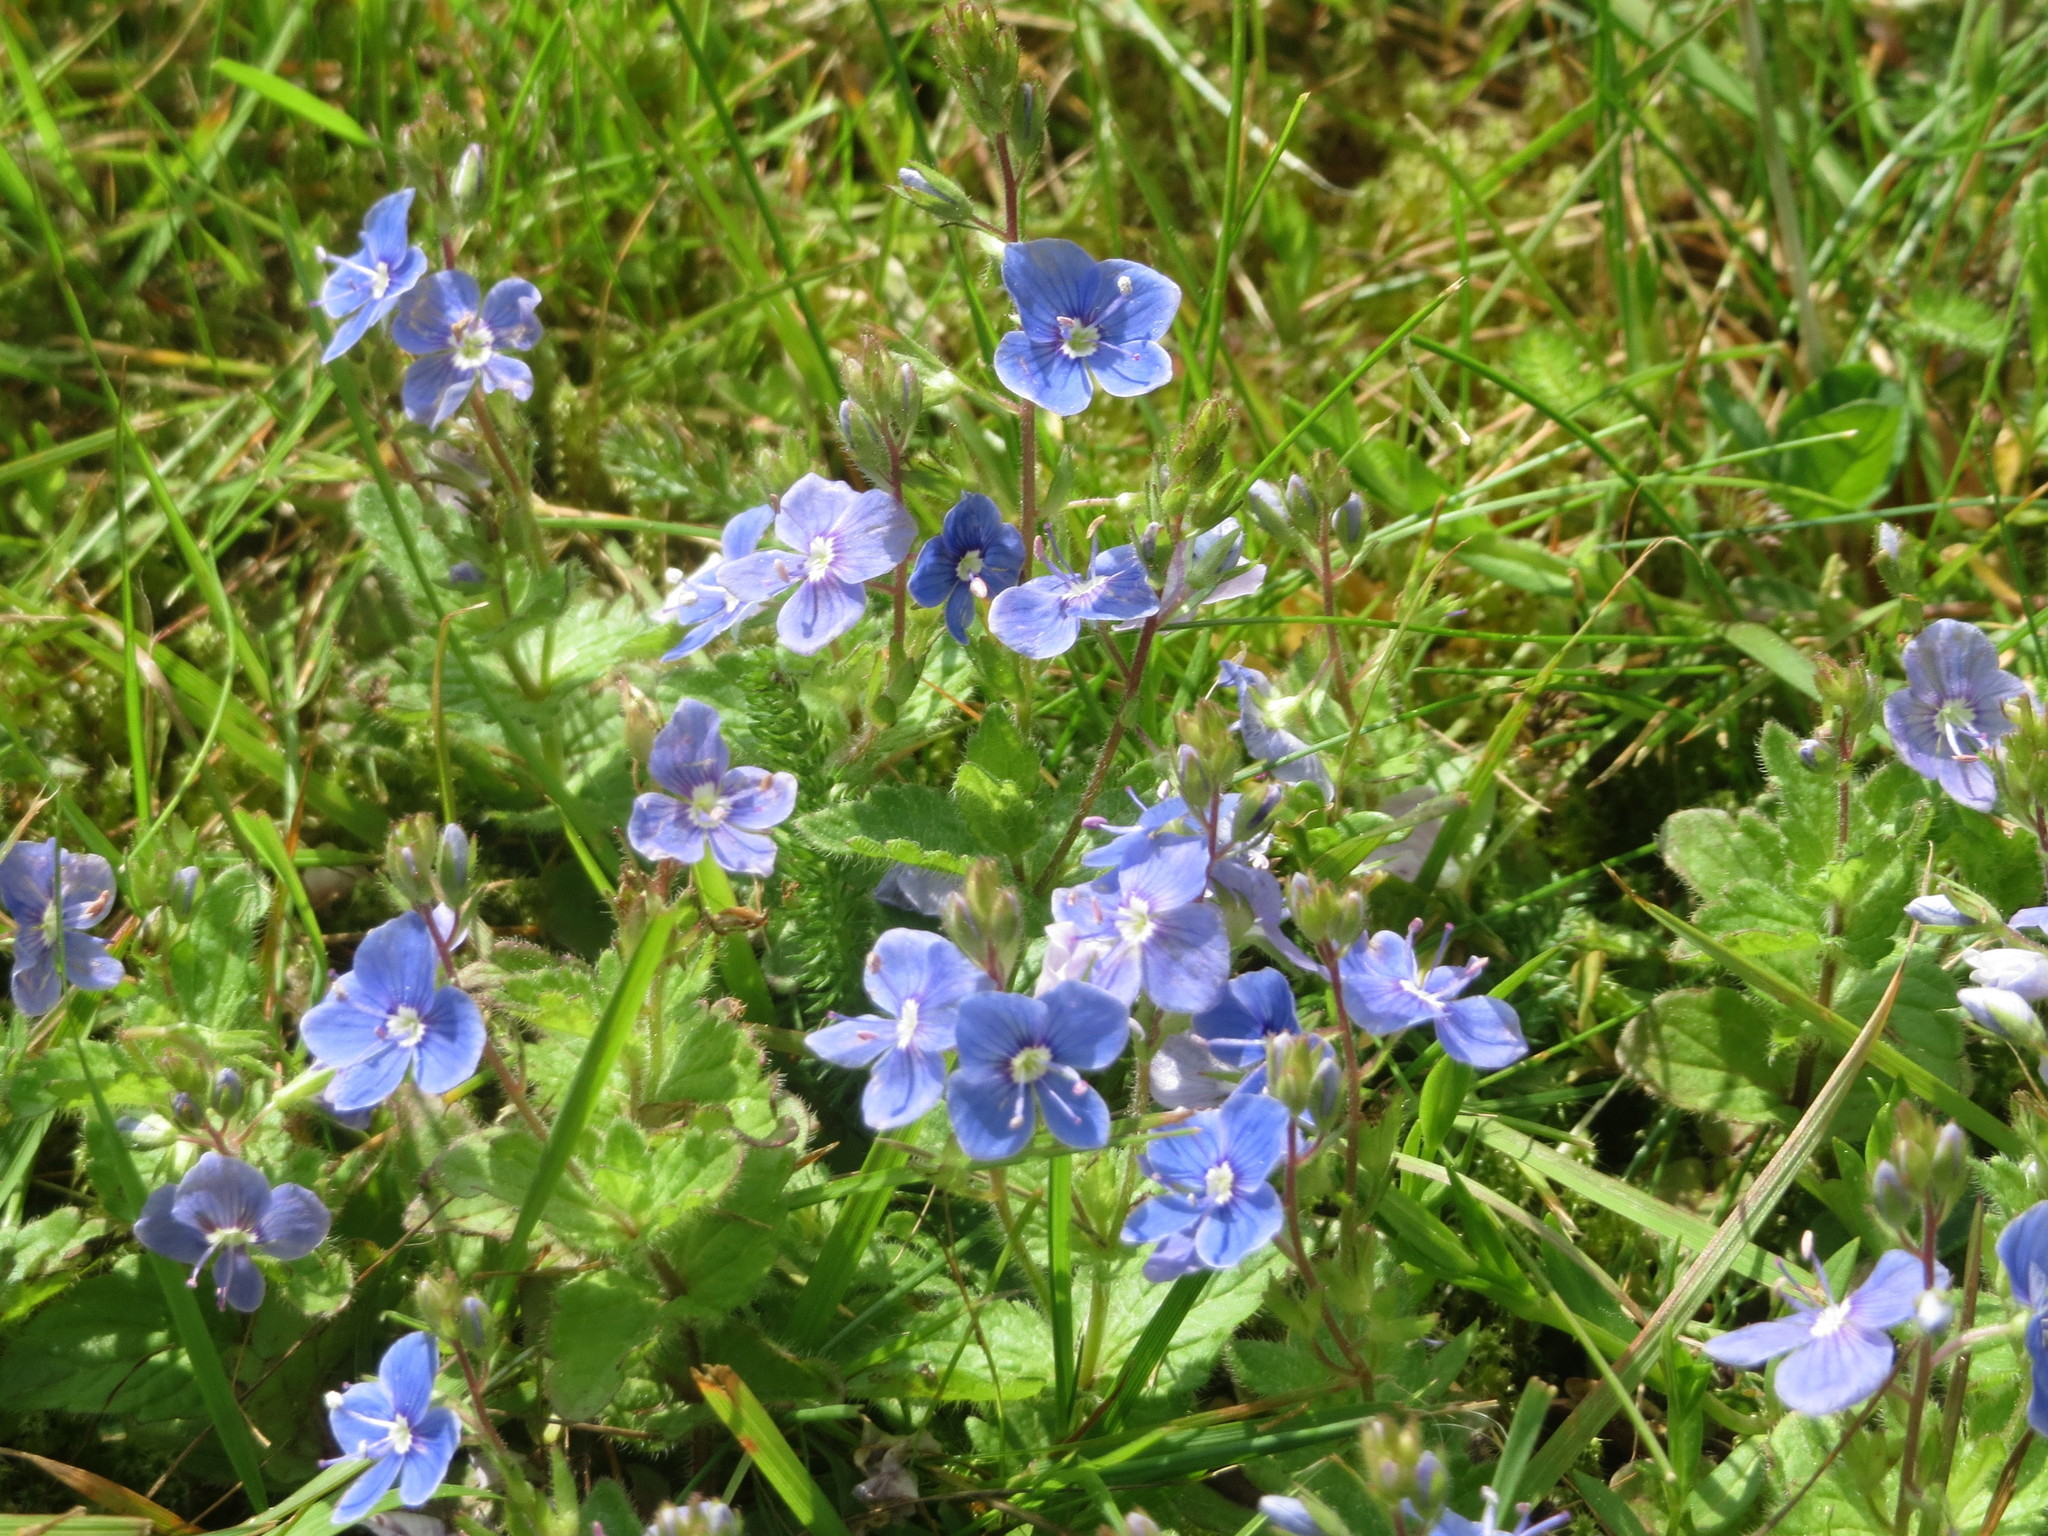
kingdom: Plantae
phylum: Tracheophyta
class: Magnoliopsida
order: Lamiales
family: Plantaginaceae
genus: Veronica
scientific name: Veronica chamaedrys
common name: Germander speedwell
